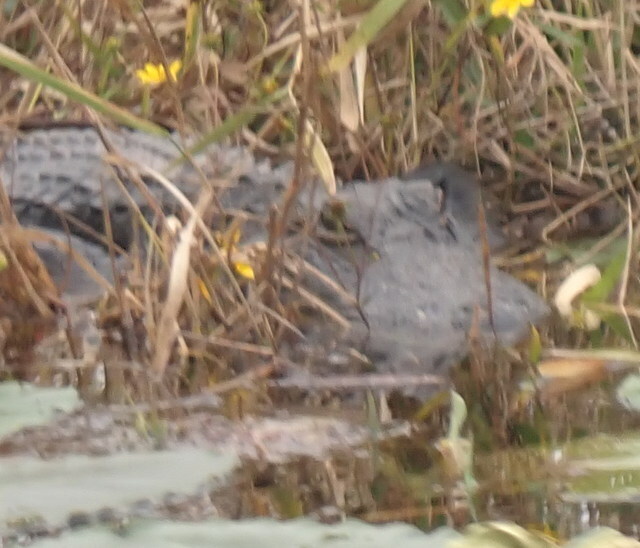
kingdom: Animalia
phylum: Chordata
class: Crocodylia
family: Alligatoridae
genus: Alligator
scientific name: Alligator mississippiensis
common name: American alligator
